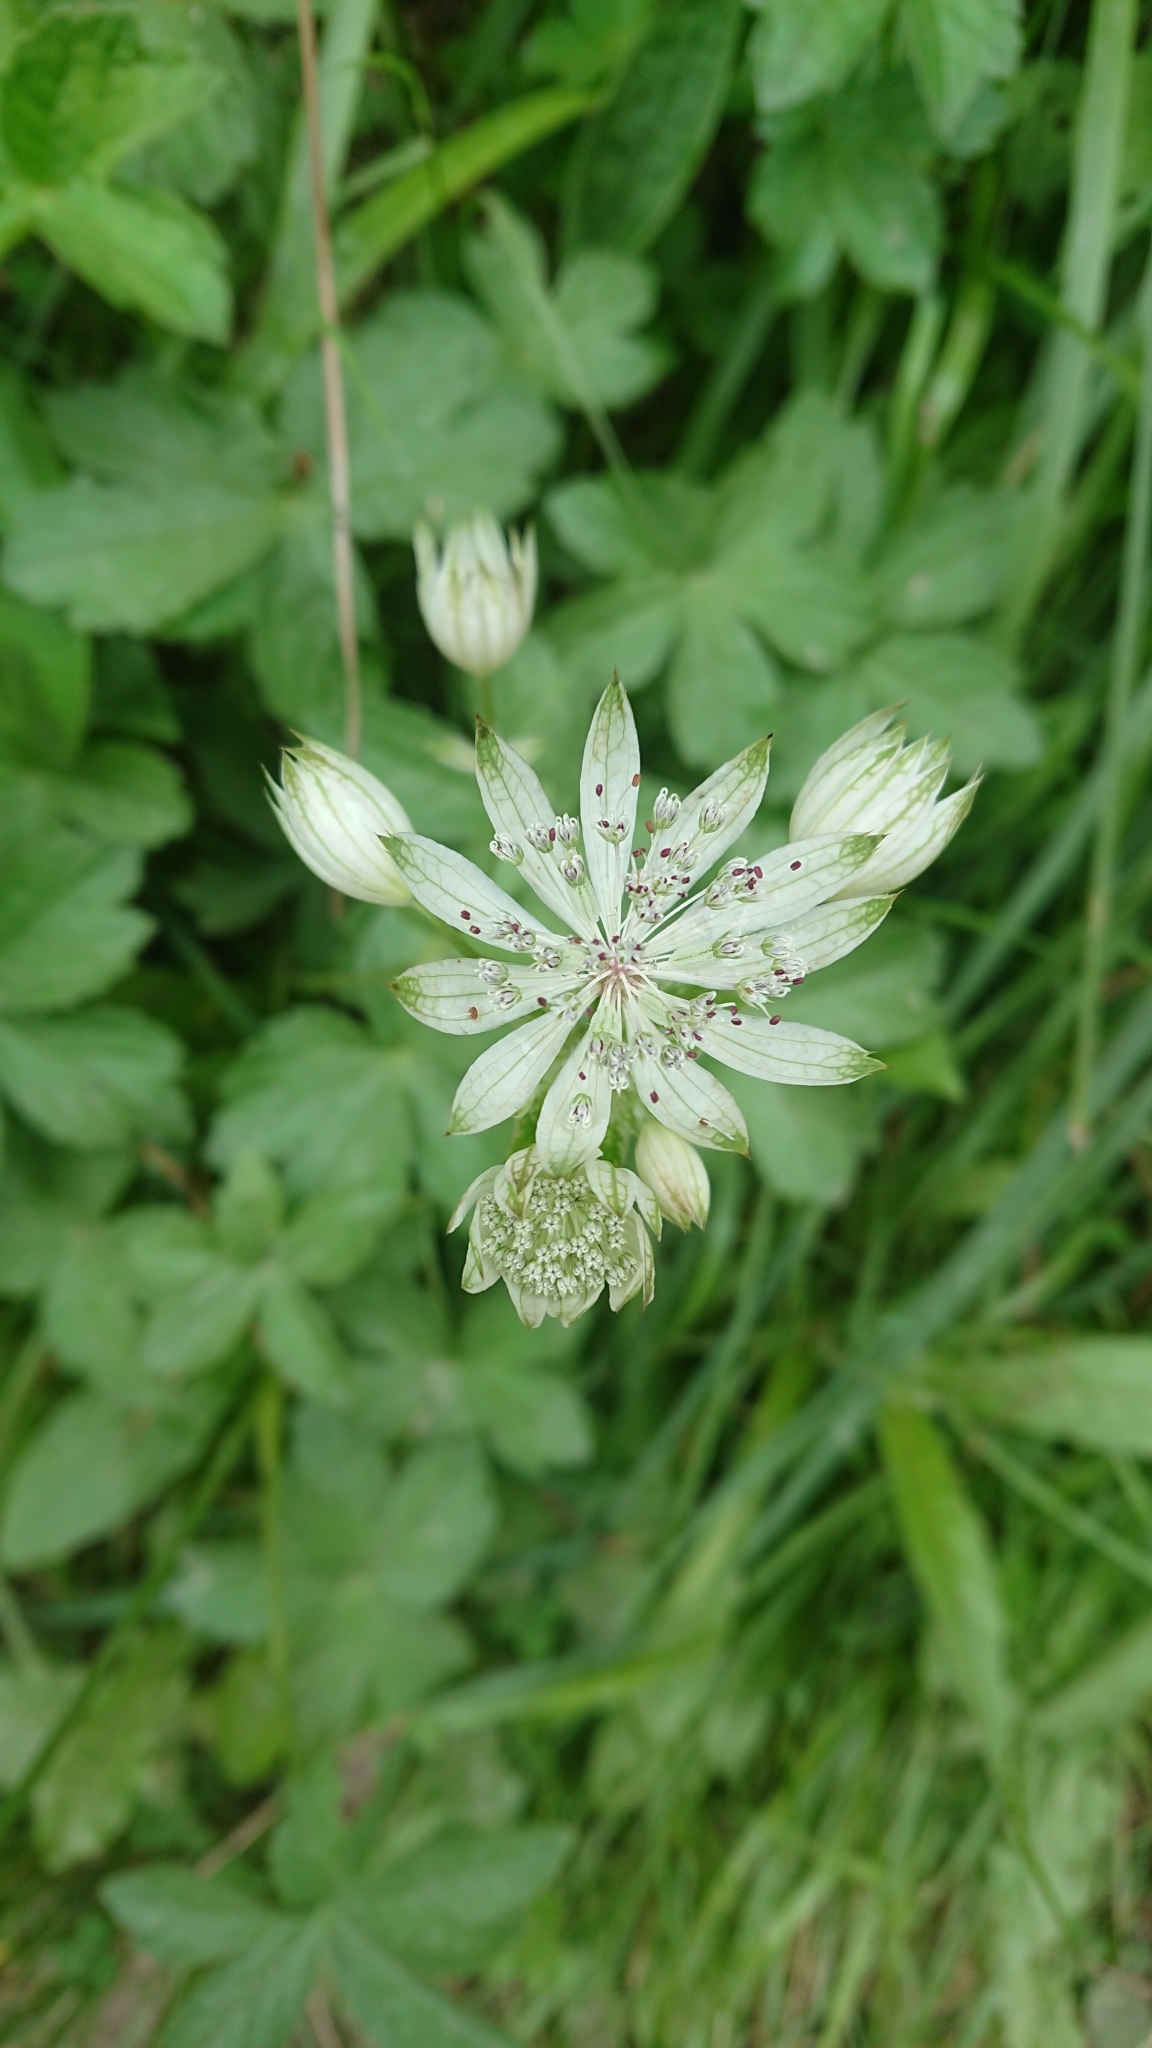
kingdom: Plantae
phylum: Tracheophyta
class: Magnoliopsida
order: Apiales
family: Apiaceae
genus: Astrantia
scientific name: Astrantia major
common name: Greater masterwort
